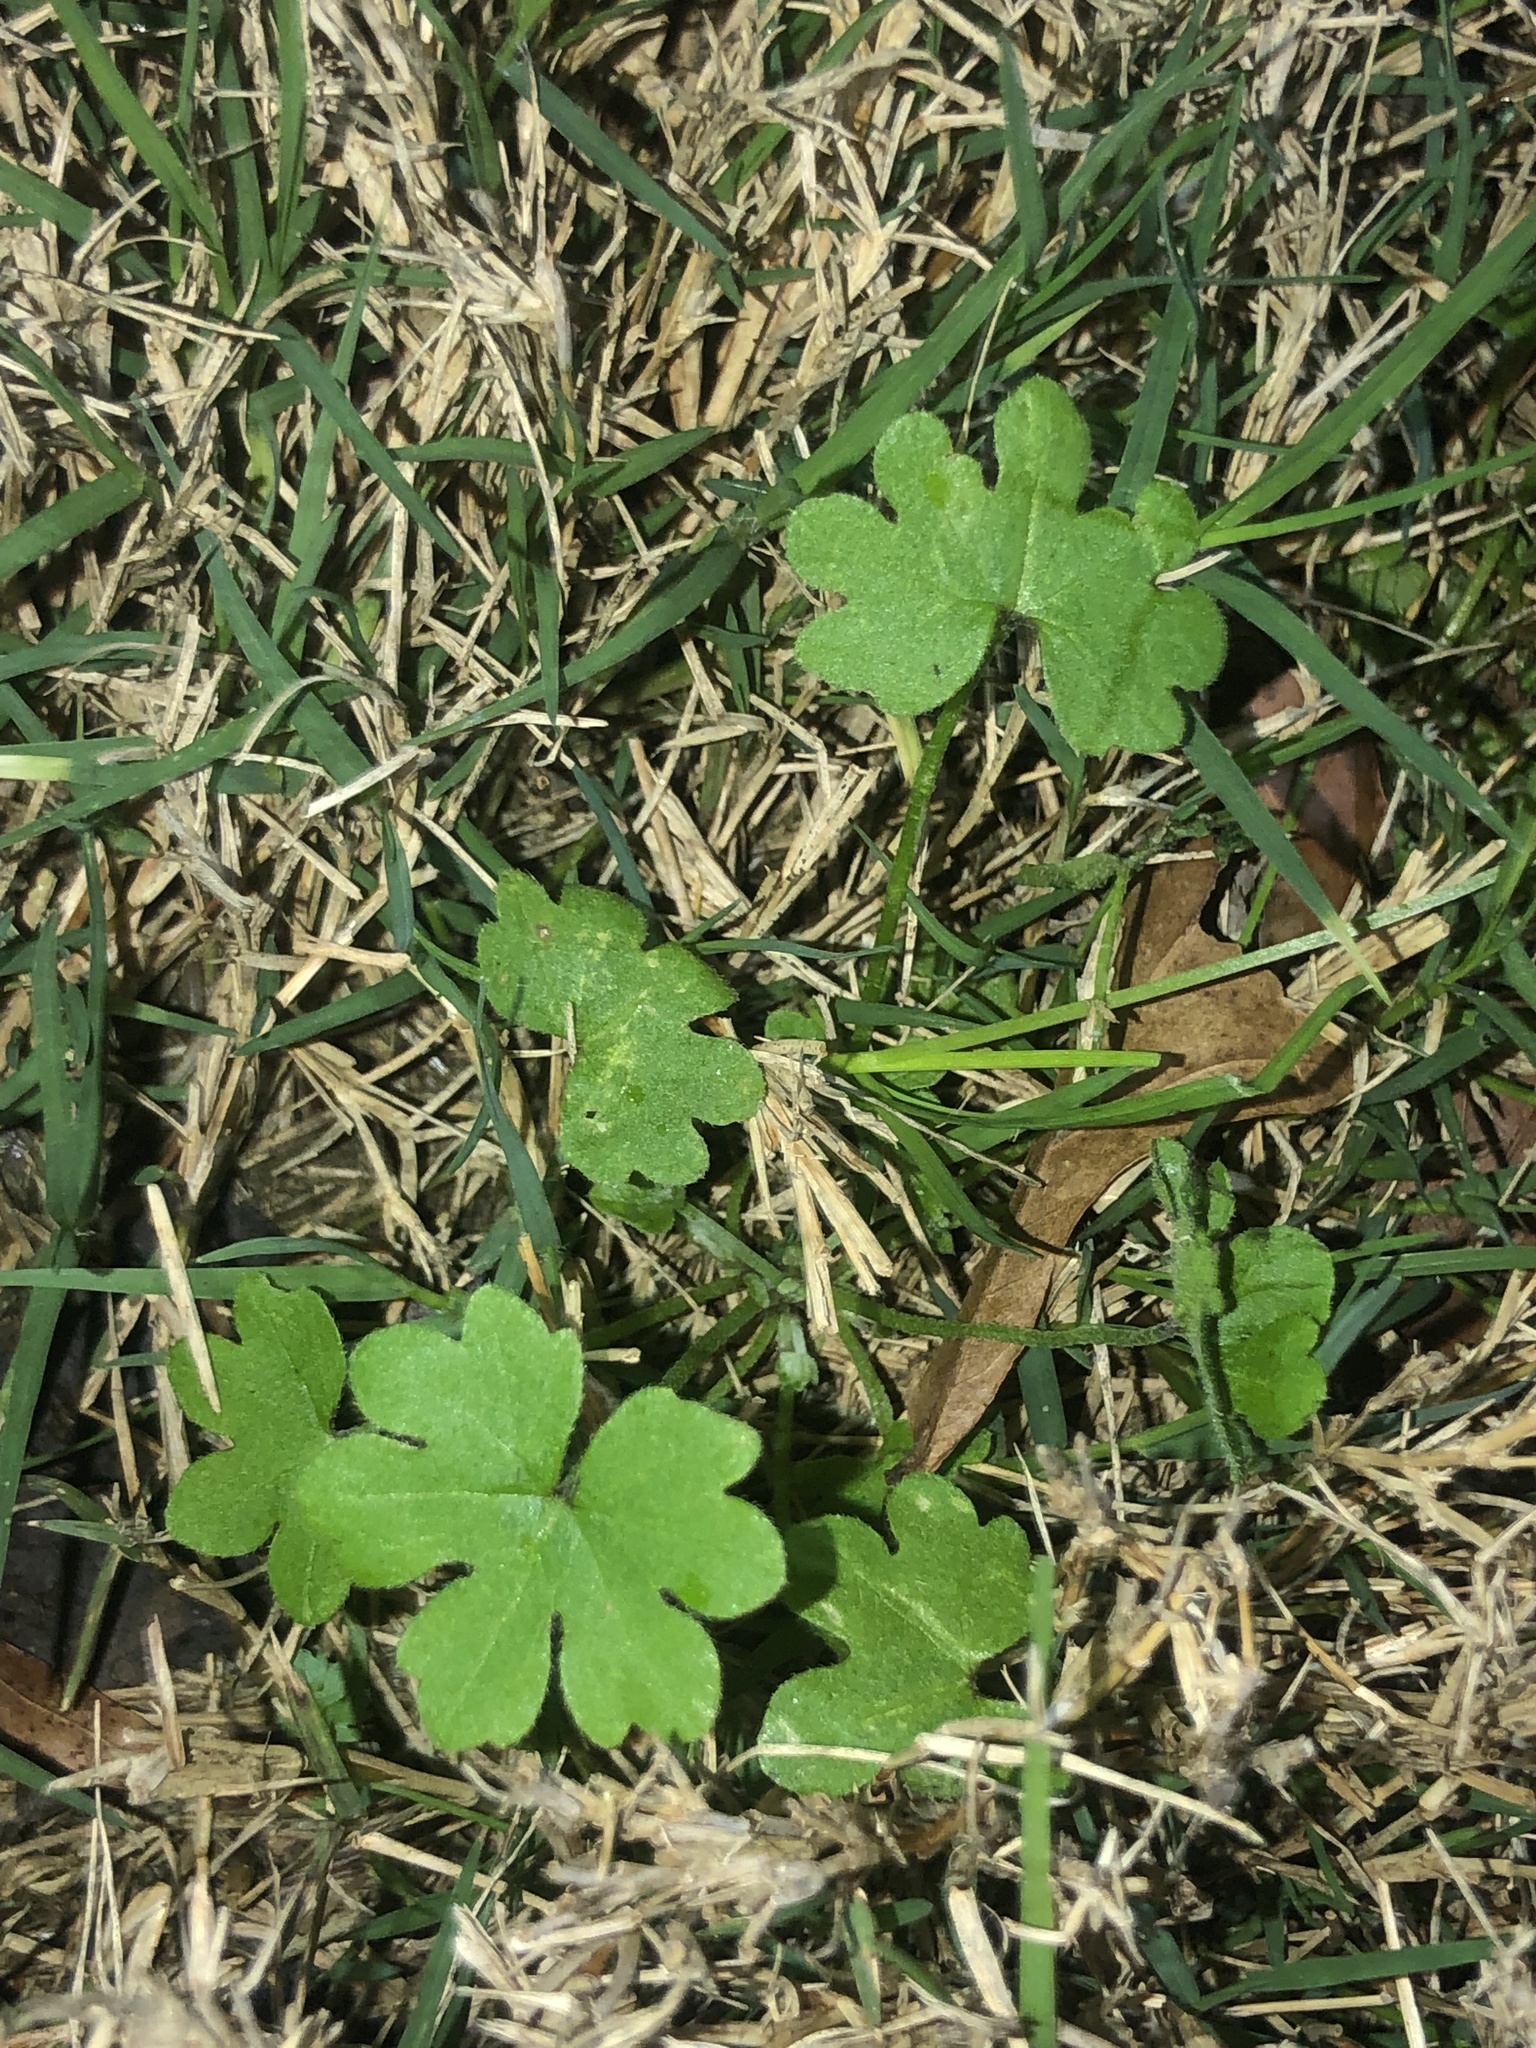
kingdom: Plantae
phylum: Tracheophyta
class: Magnoliopsida
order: Apiales
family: Apiaceae
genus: Bowlesia
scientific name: Bowlesia incana
